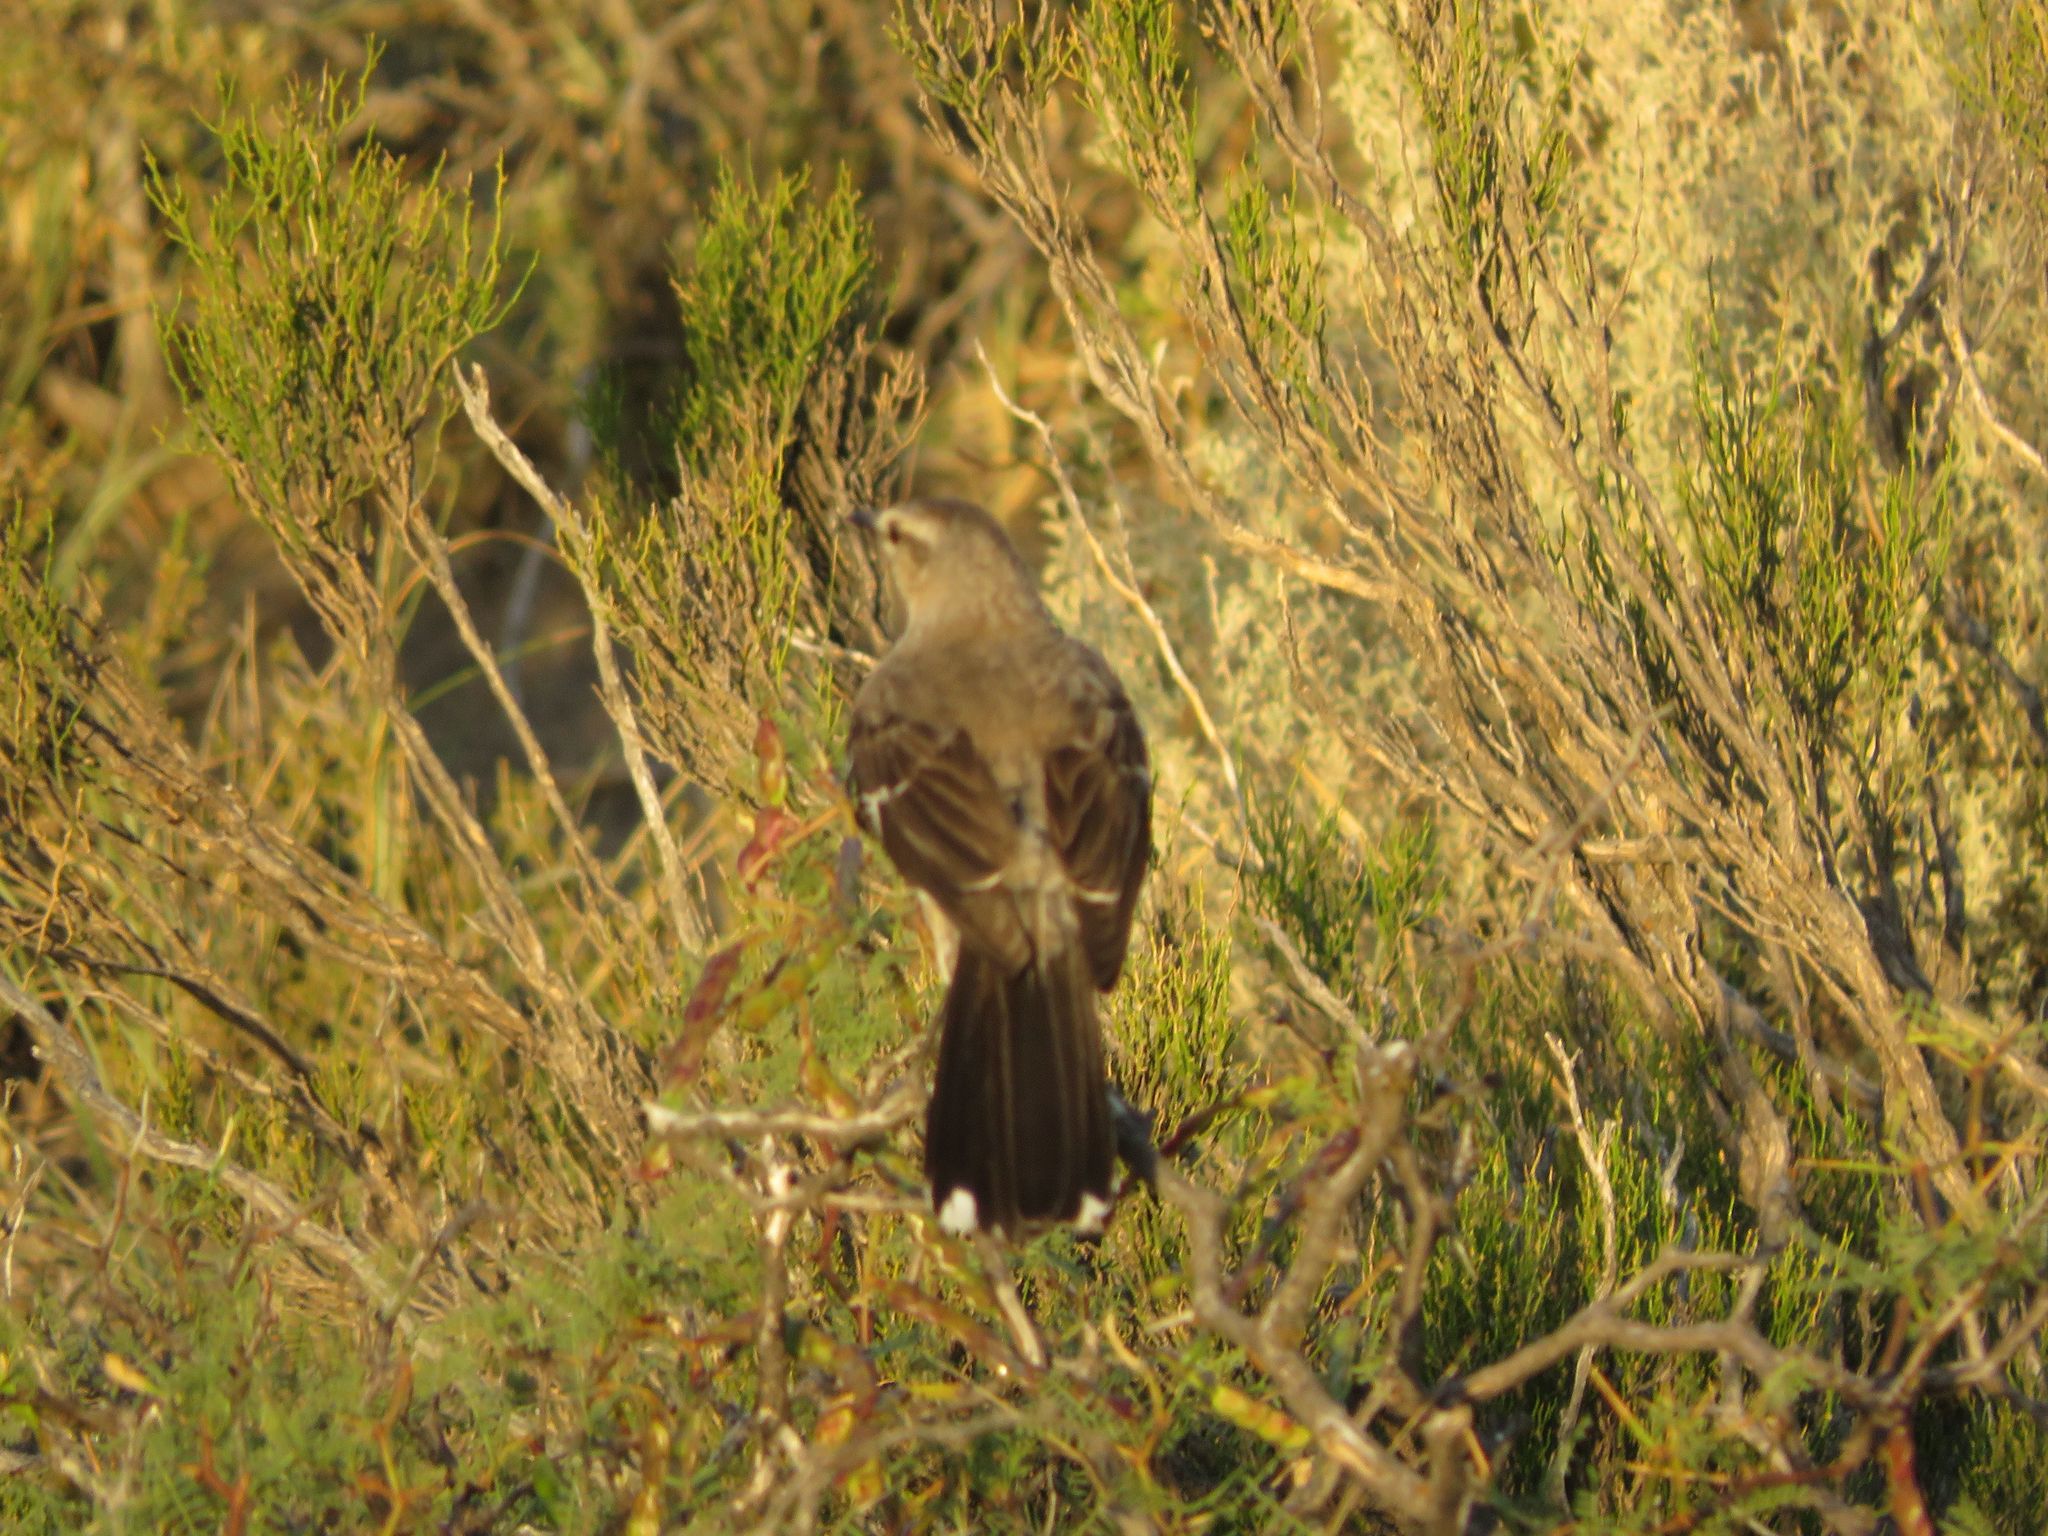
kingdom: Animalia
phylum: Chordata
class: Aves
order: Passeriformes
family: Mimidae
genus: Mimus
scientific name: Mimus patagonicus
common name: Patagonian mockingbird
